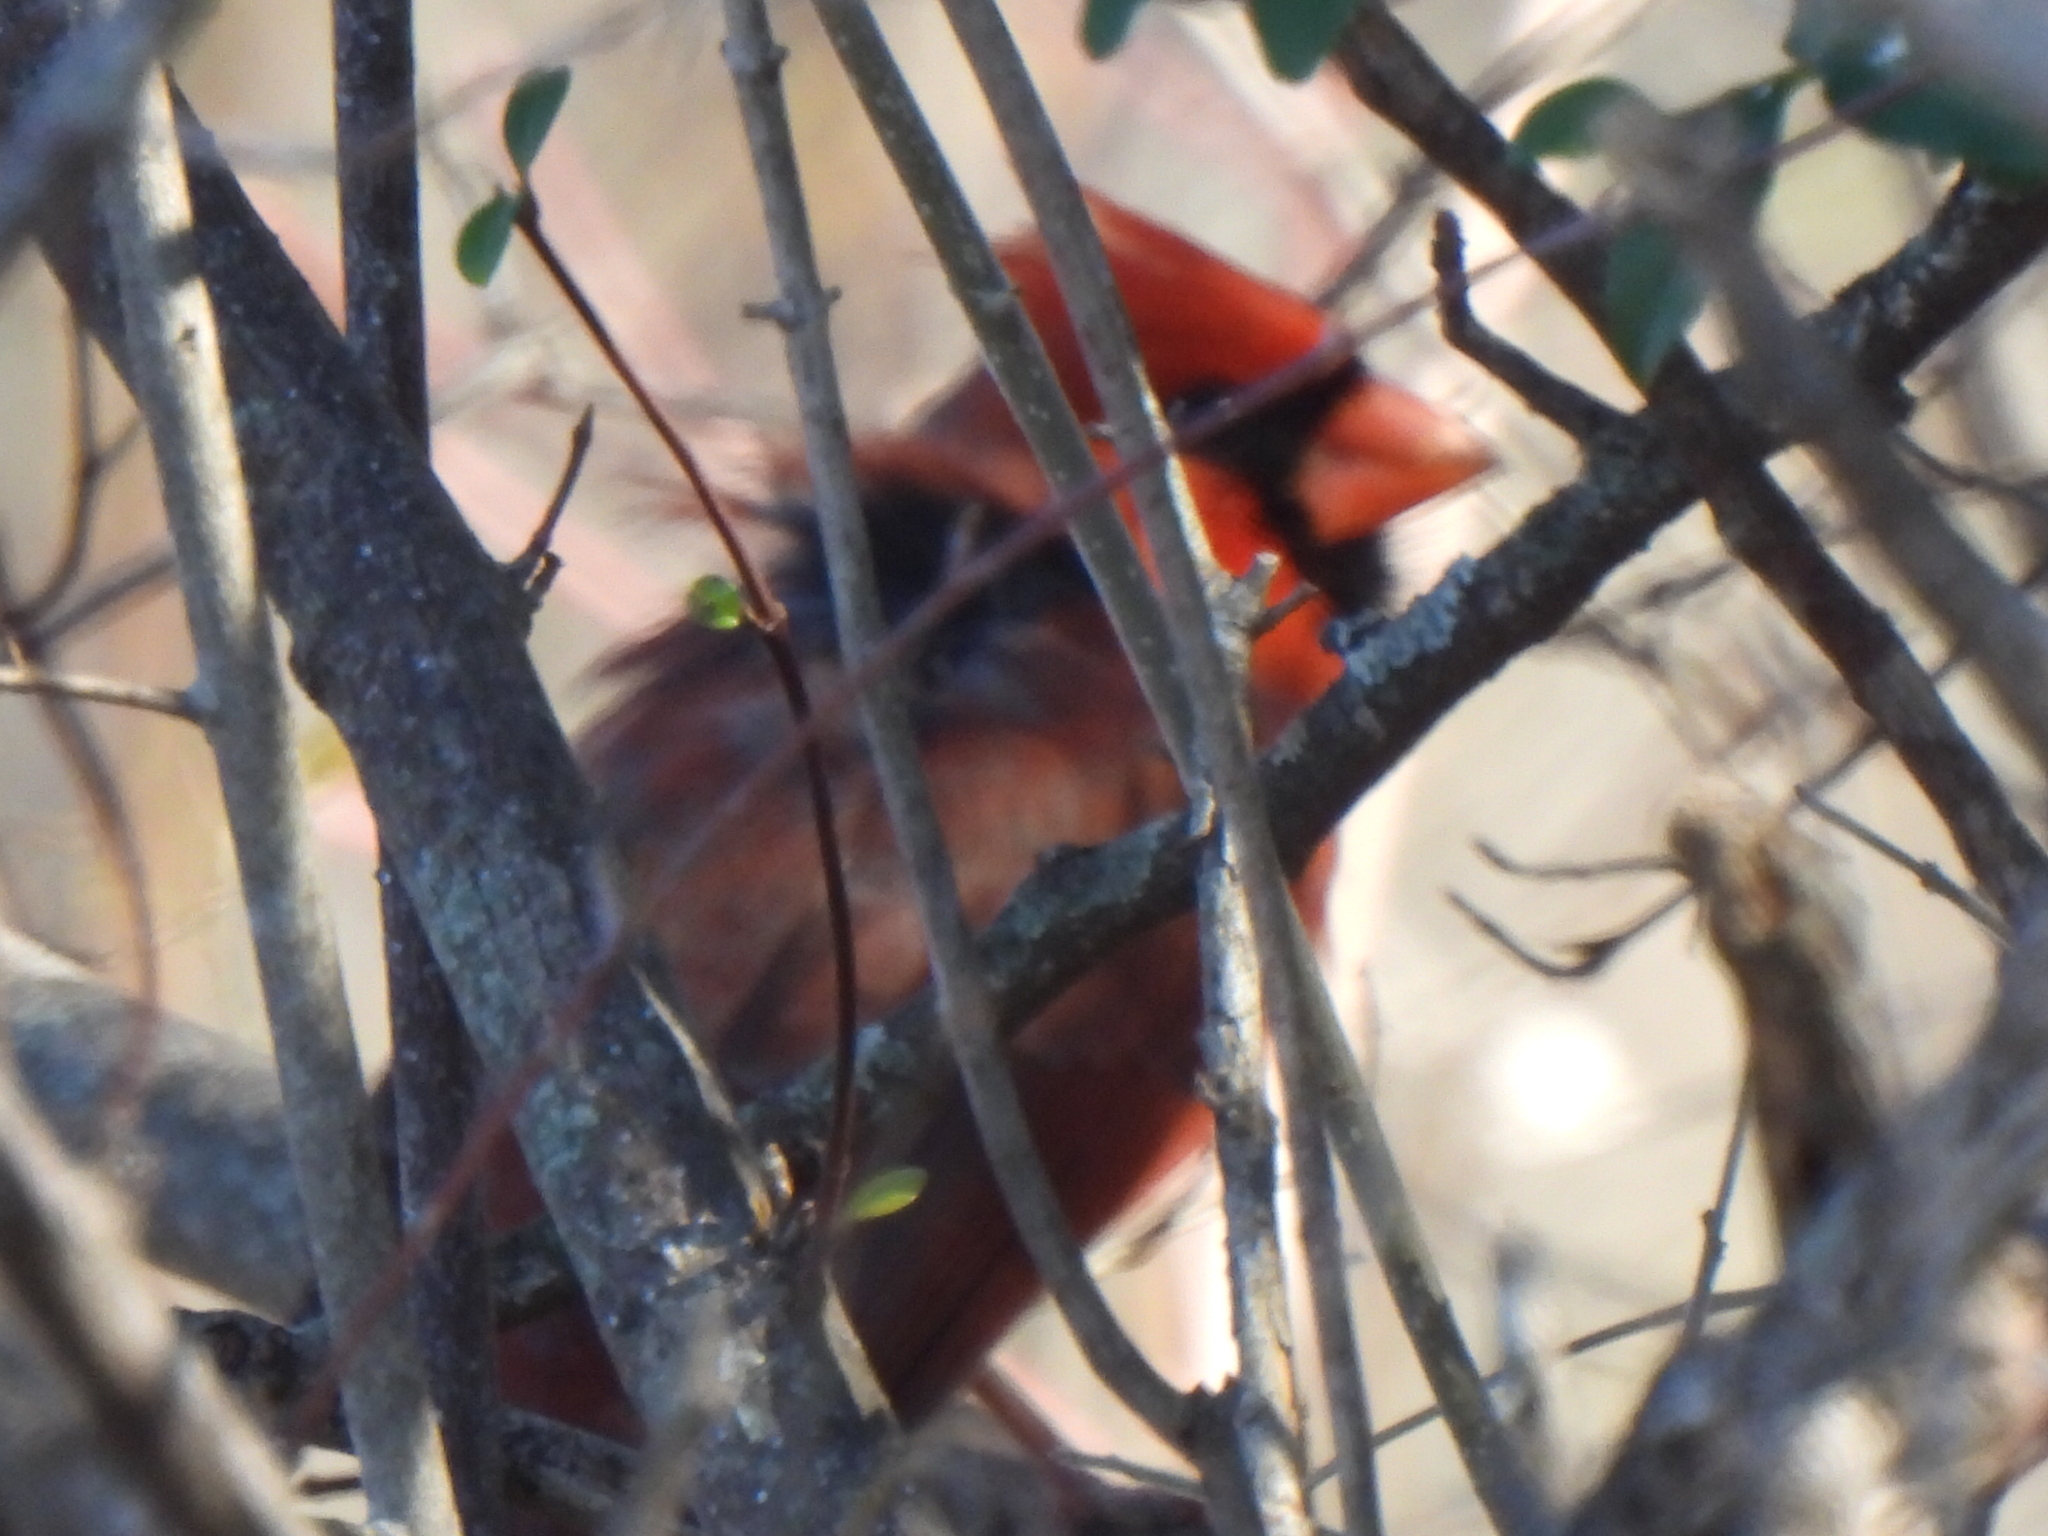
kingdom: Animalia
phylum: Chordata
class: Aves
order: Passeriformes
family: Cardinalidae
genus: Cardinalis
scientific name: Cardinalis cardinalis
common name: Northern cardinal
